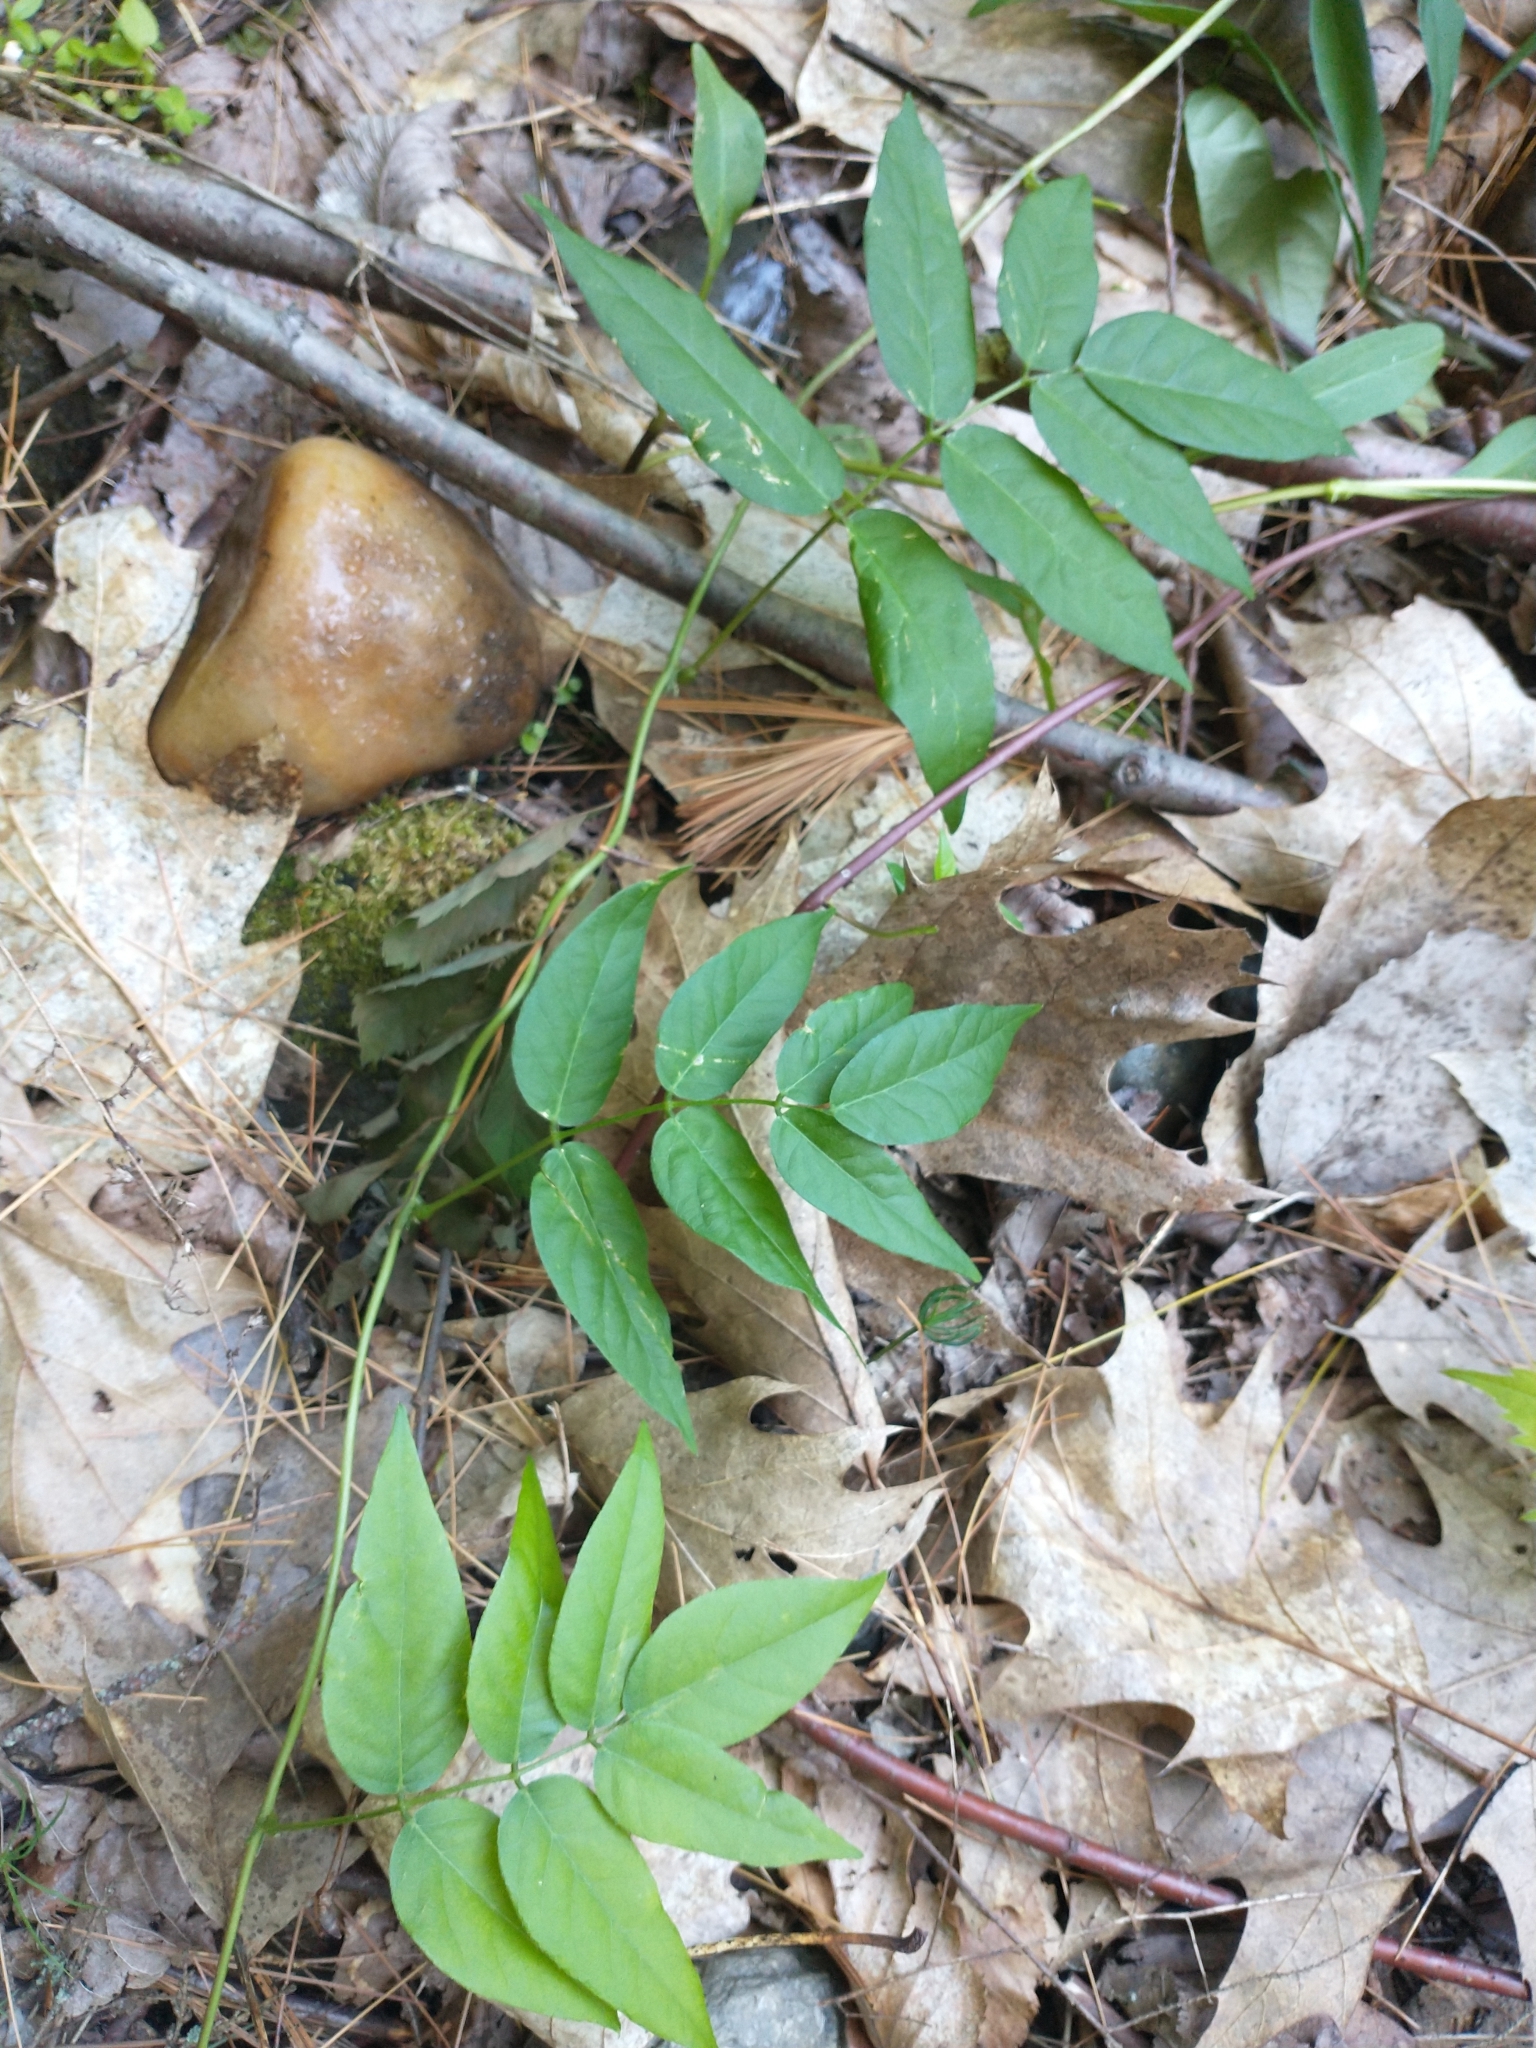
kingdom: Plantae
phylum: Tracheophyta
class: Magnoliopsida
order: Fabales
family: Fabaceae
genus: Apios
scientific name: Apios americana
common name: American potato-bean
